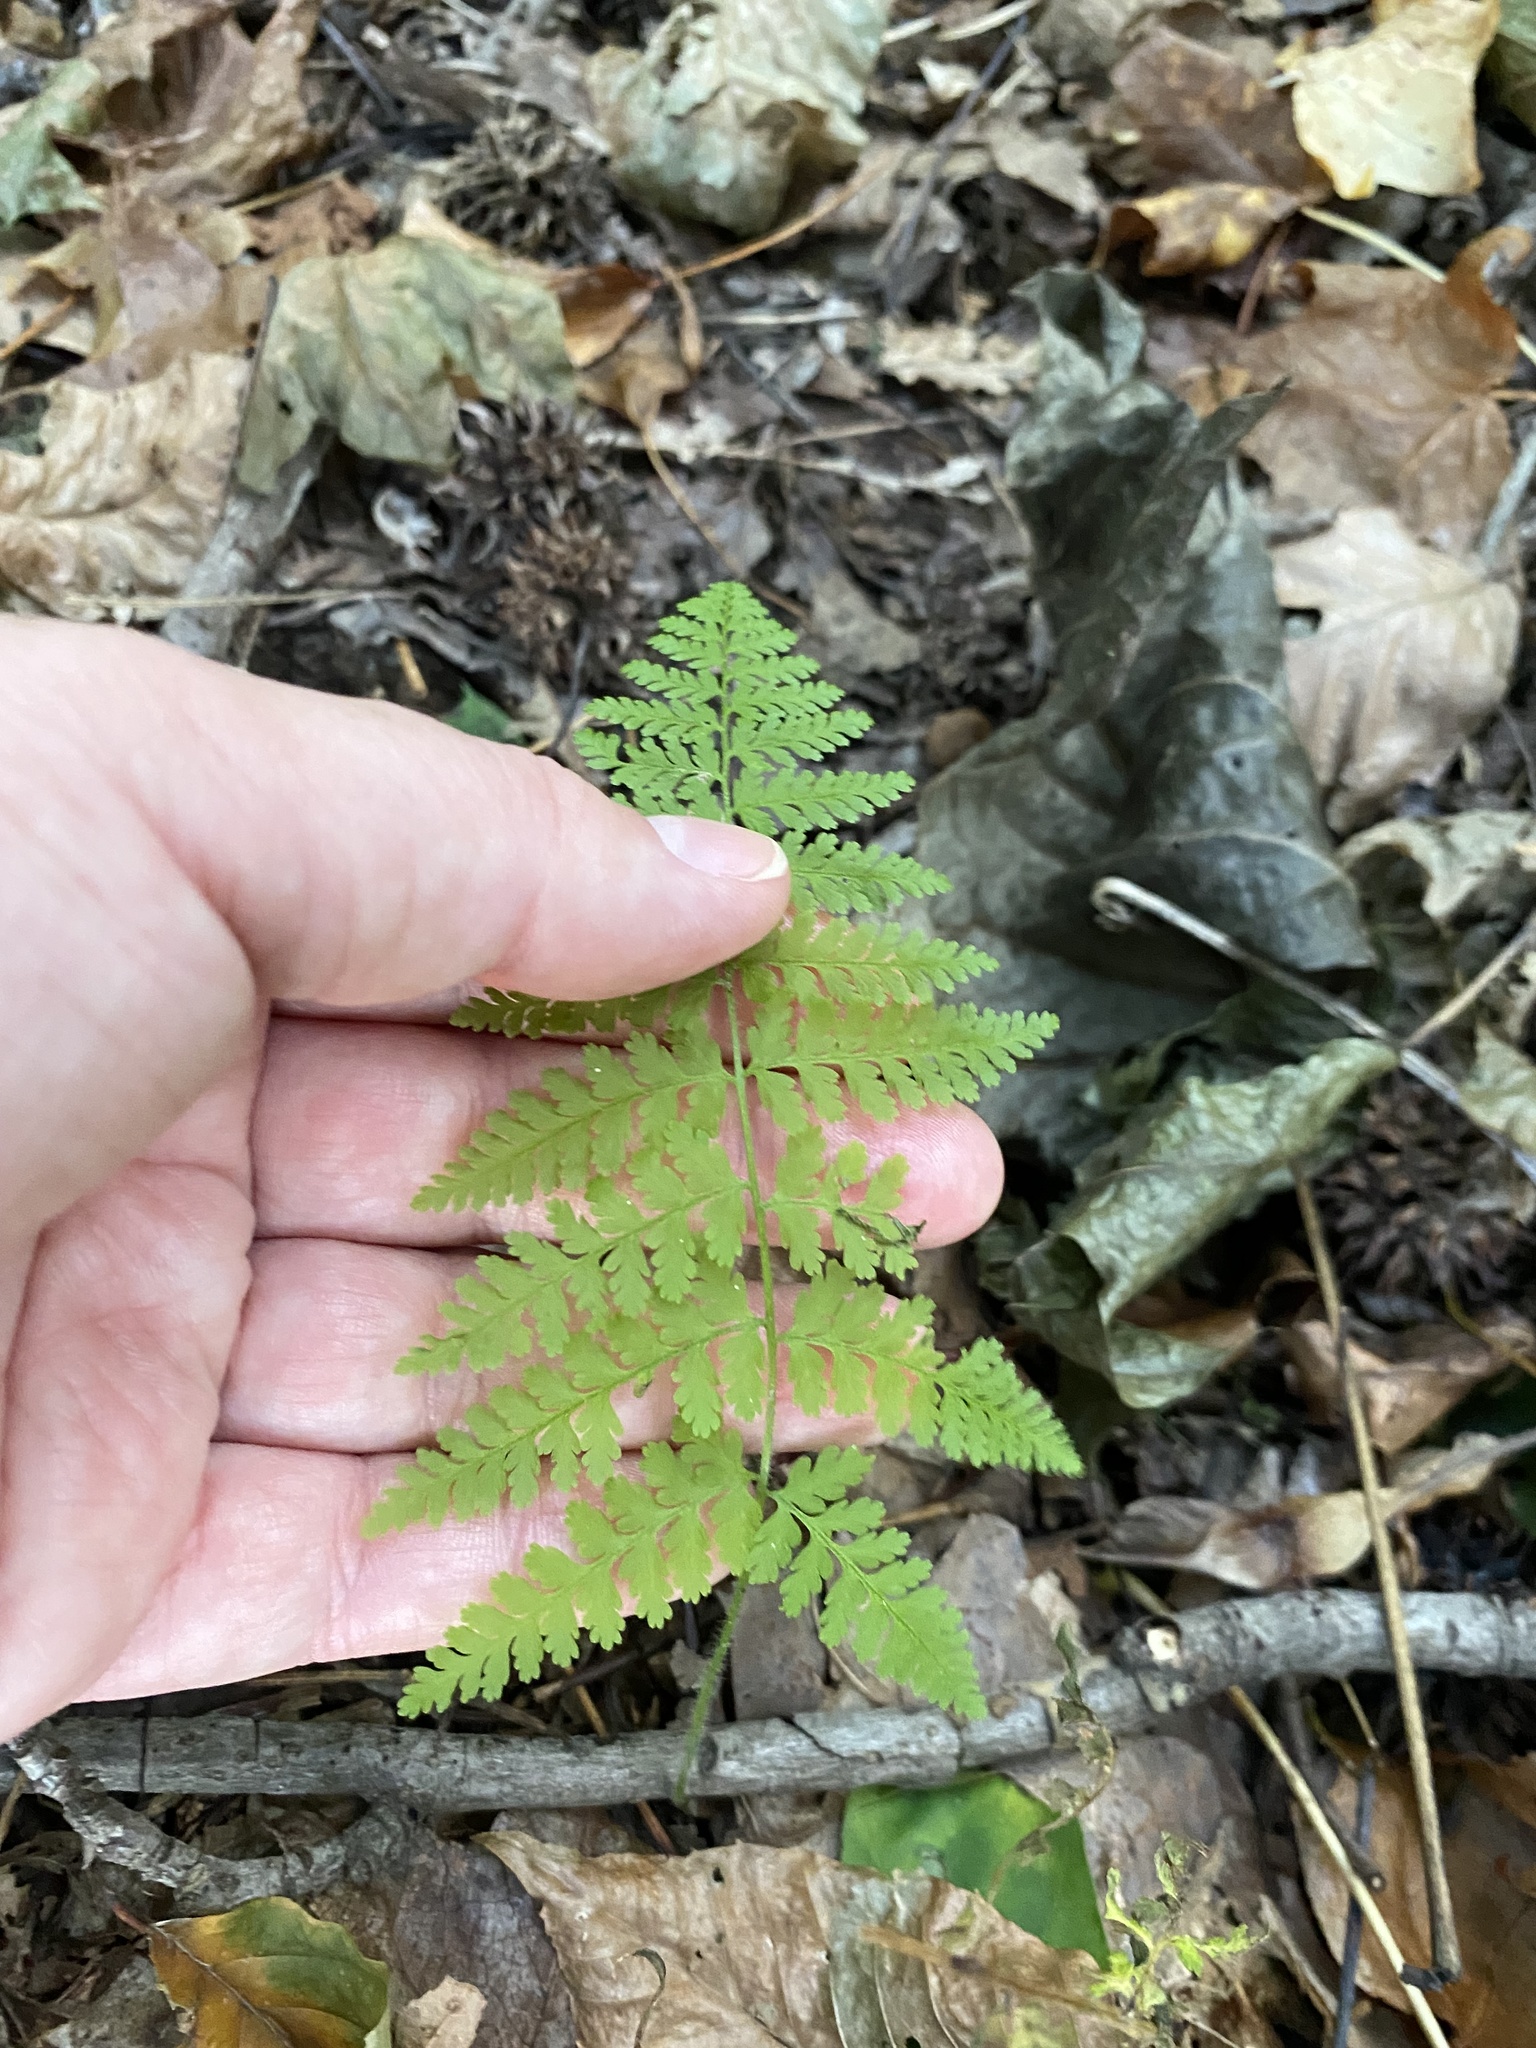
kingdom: Plantae
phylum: Tracheophyta
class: Polypodiopsida
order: Polypodiales
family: Dennstaedtiaceae
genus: Sitobolium
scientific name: Sitobolium punctilobum
